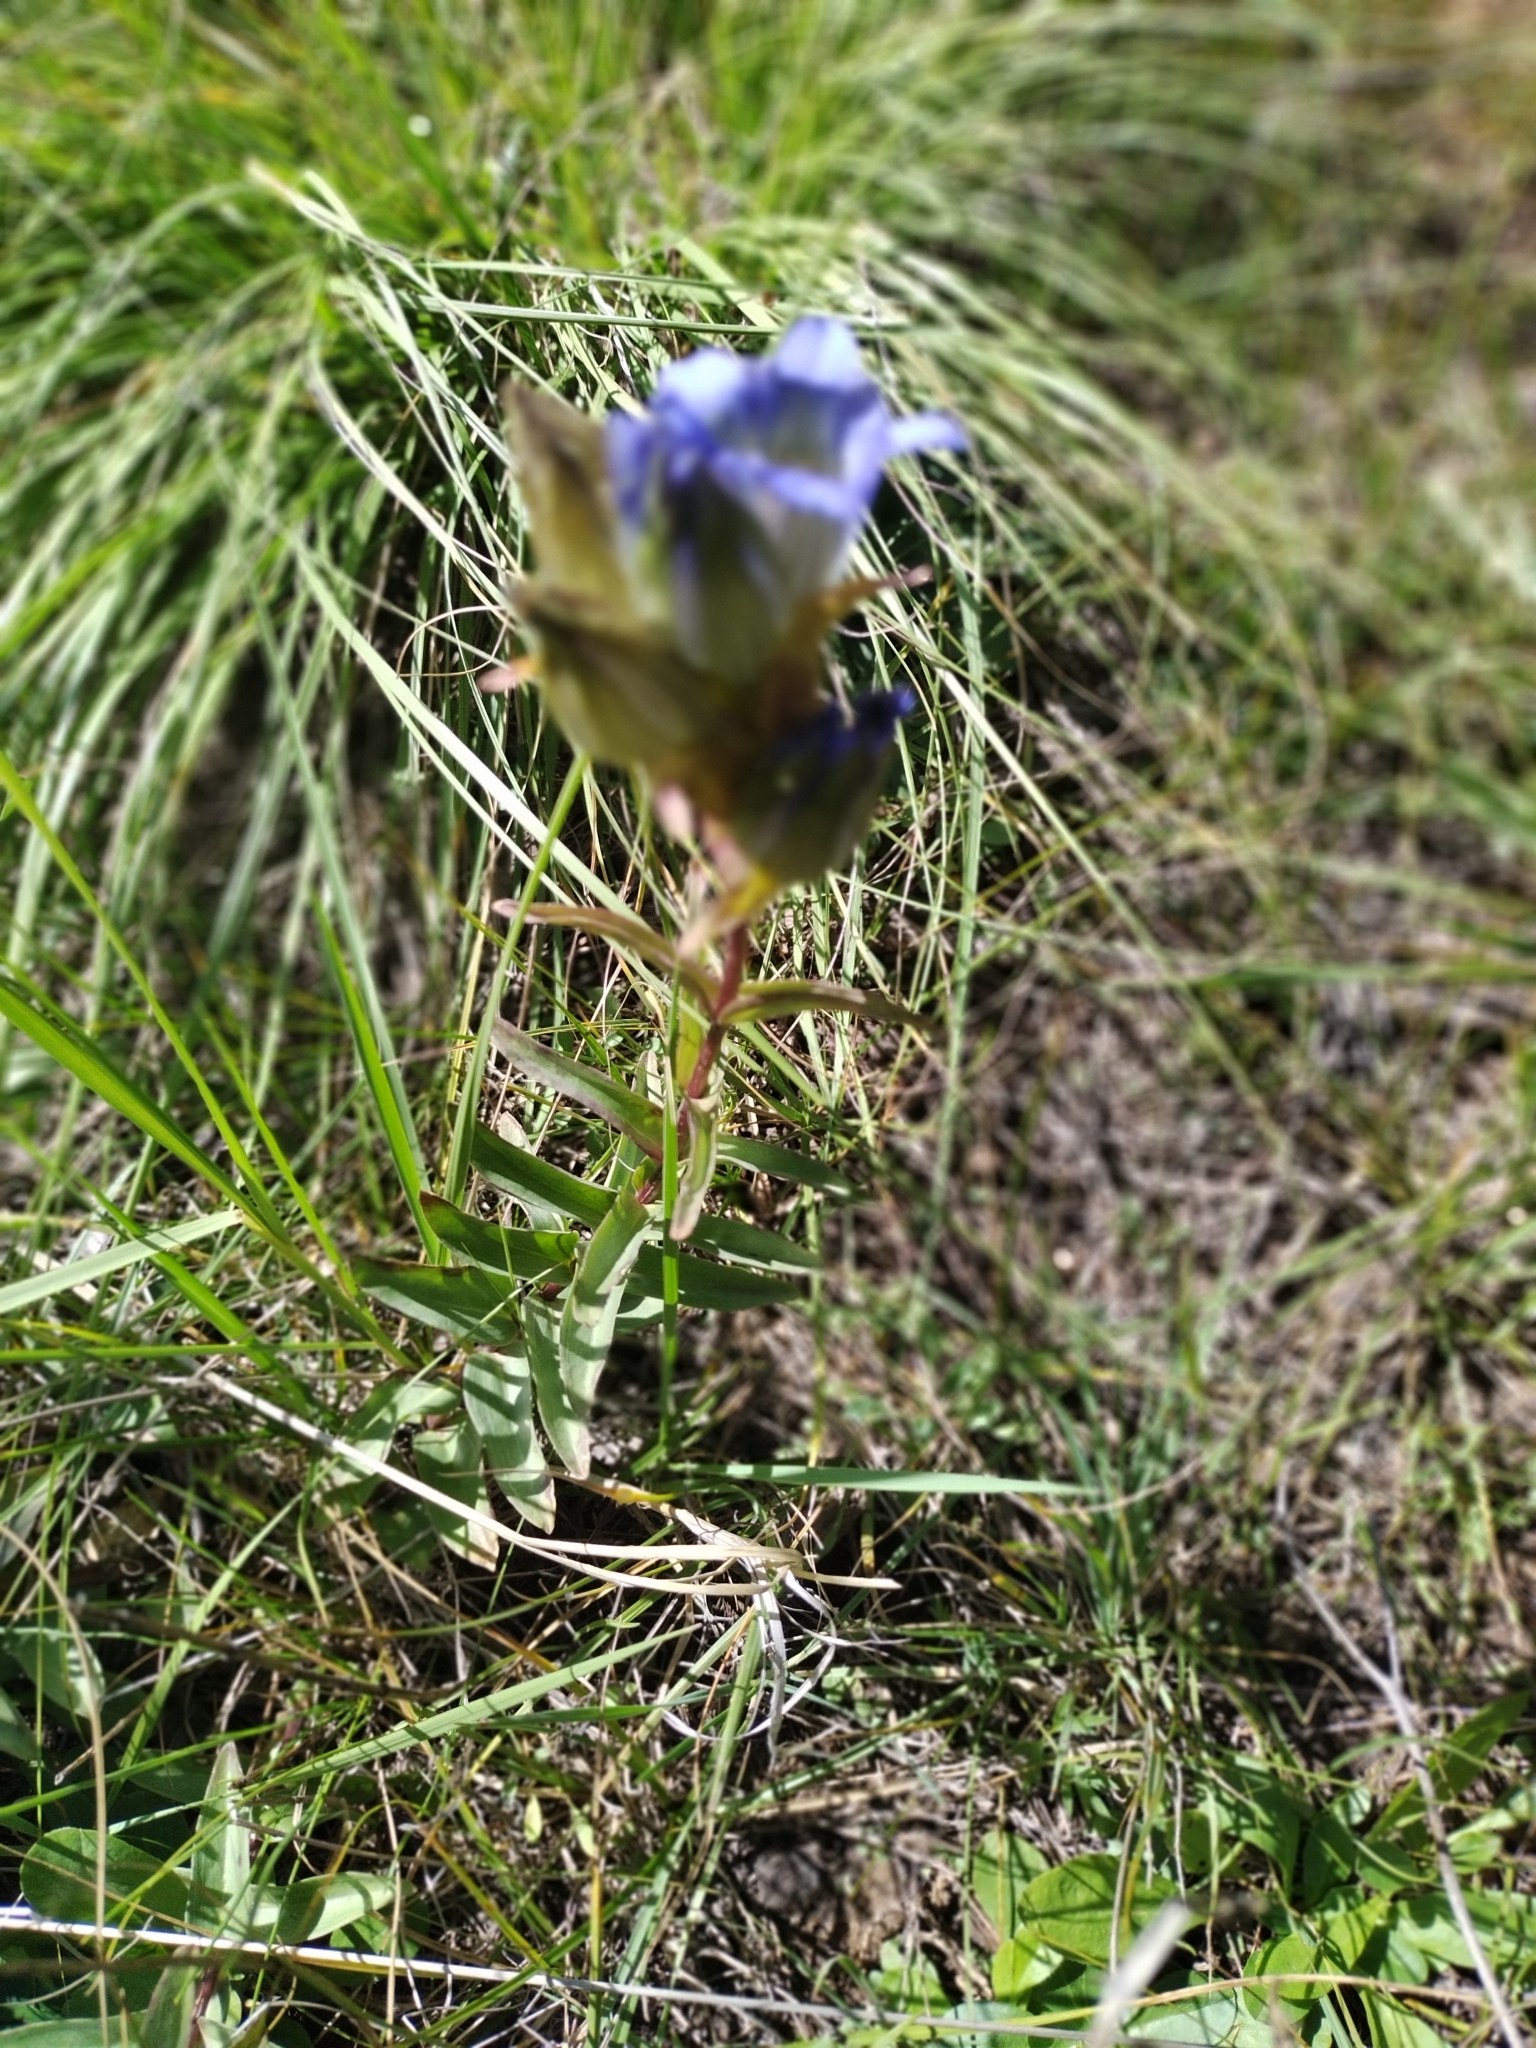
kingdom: Plantae
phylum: Tracheophyta
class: Magnoliopsida
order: Gentianales
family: Gentianaceae
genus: Gentiana
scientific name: Gentiana parryi
